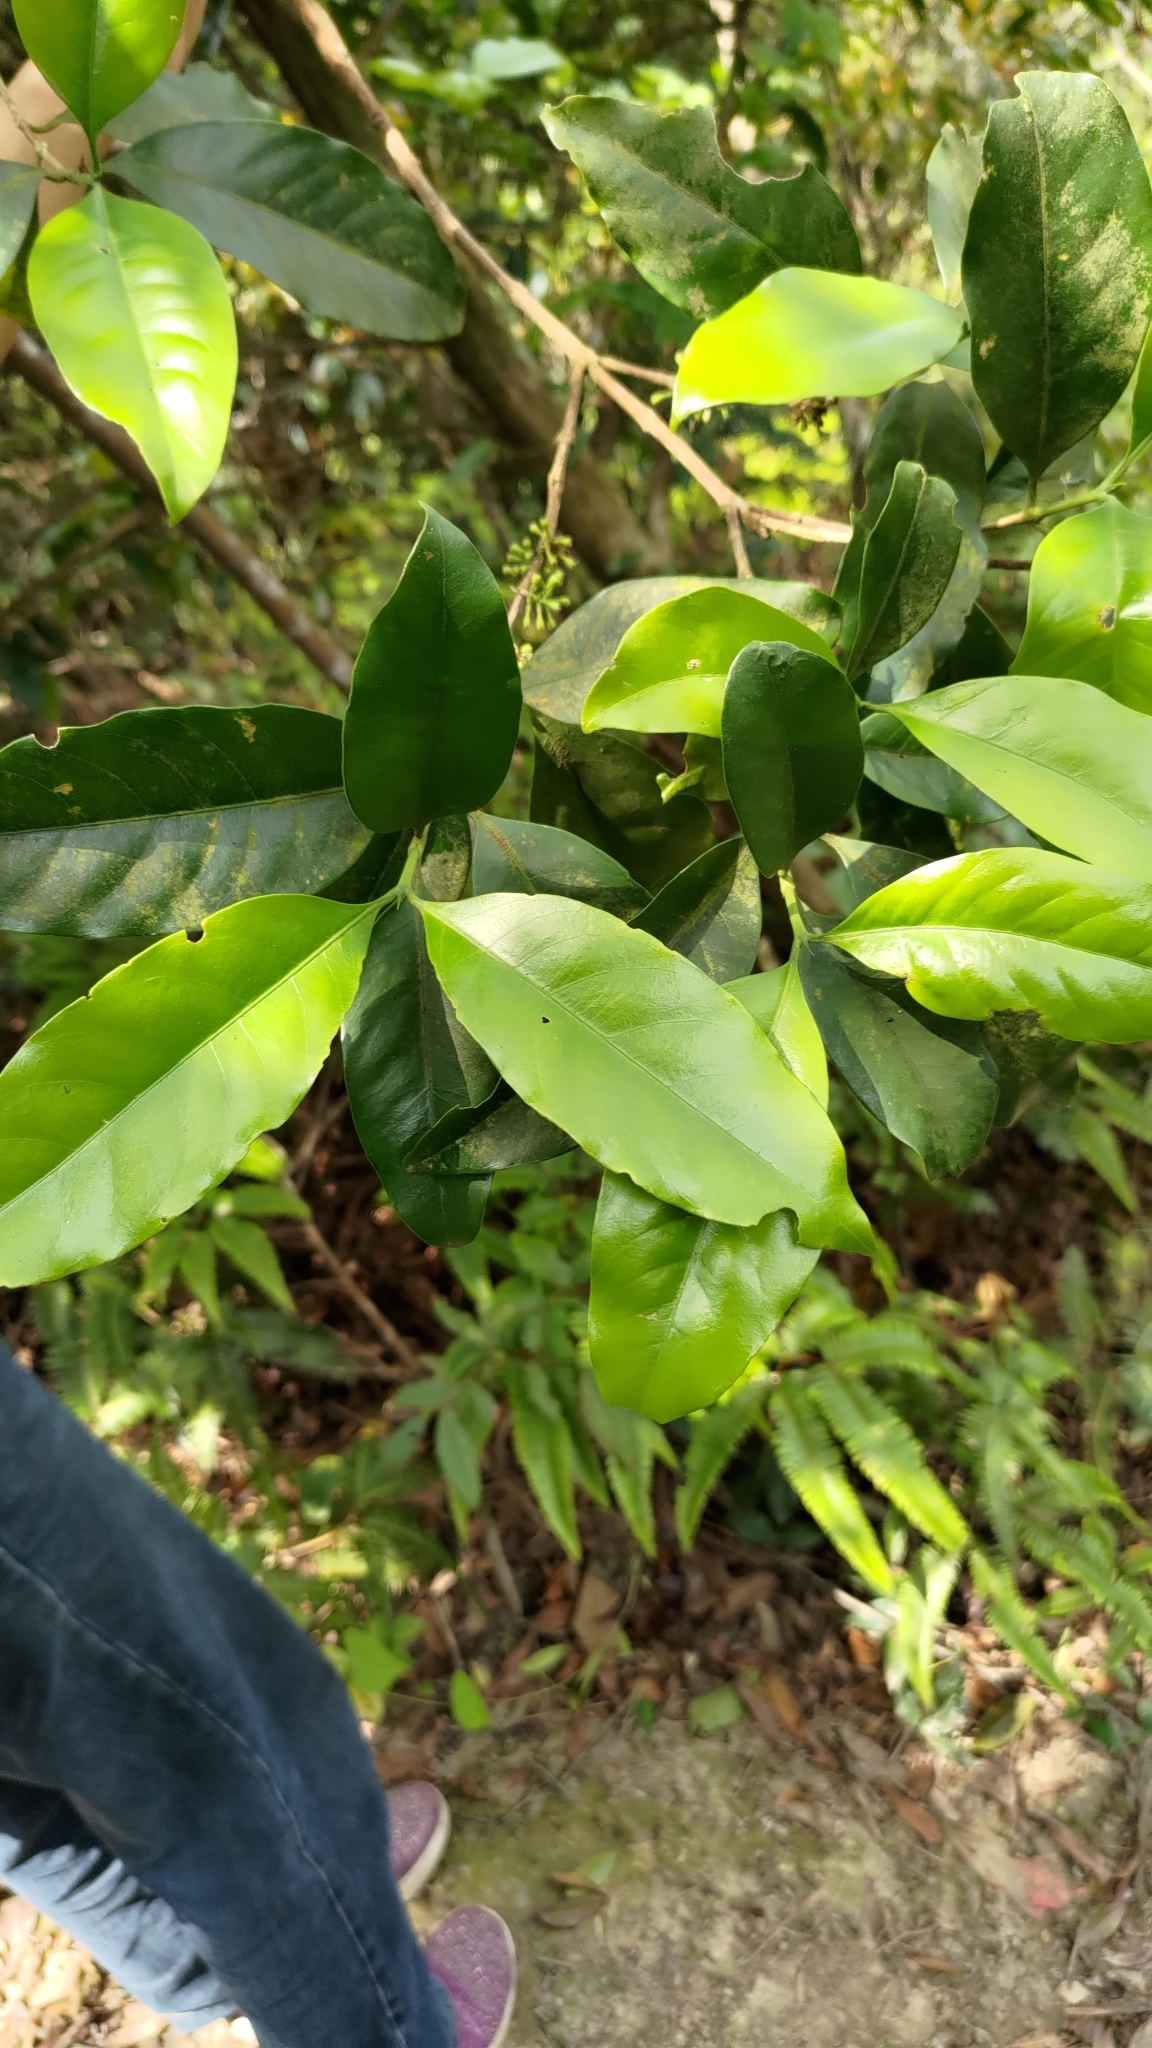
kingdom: Plantae
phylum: Tracheophyta
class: Magnoliopsida
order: Gentianales
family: Rubiaceae
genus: Diplospora
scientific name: Diplospora dubia
